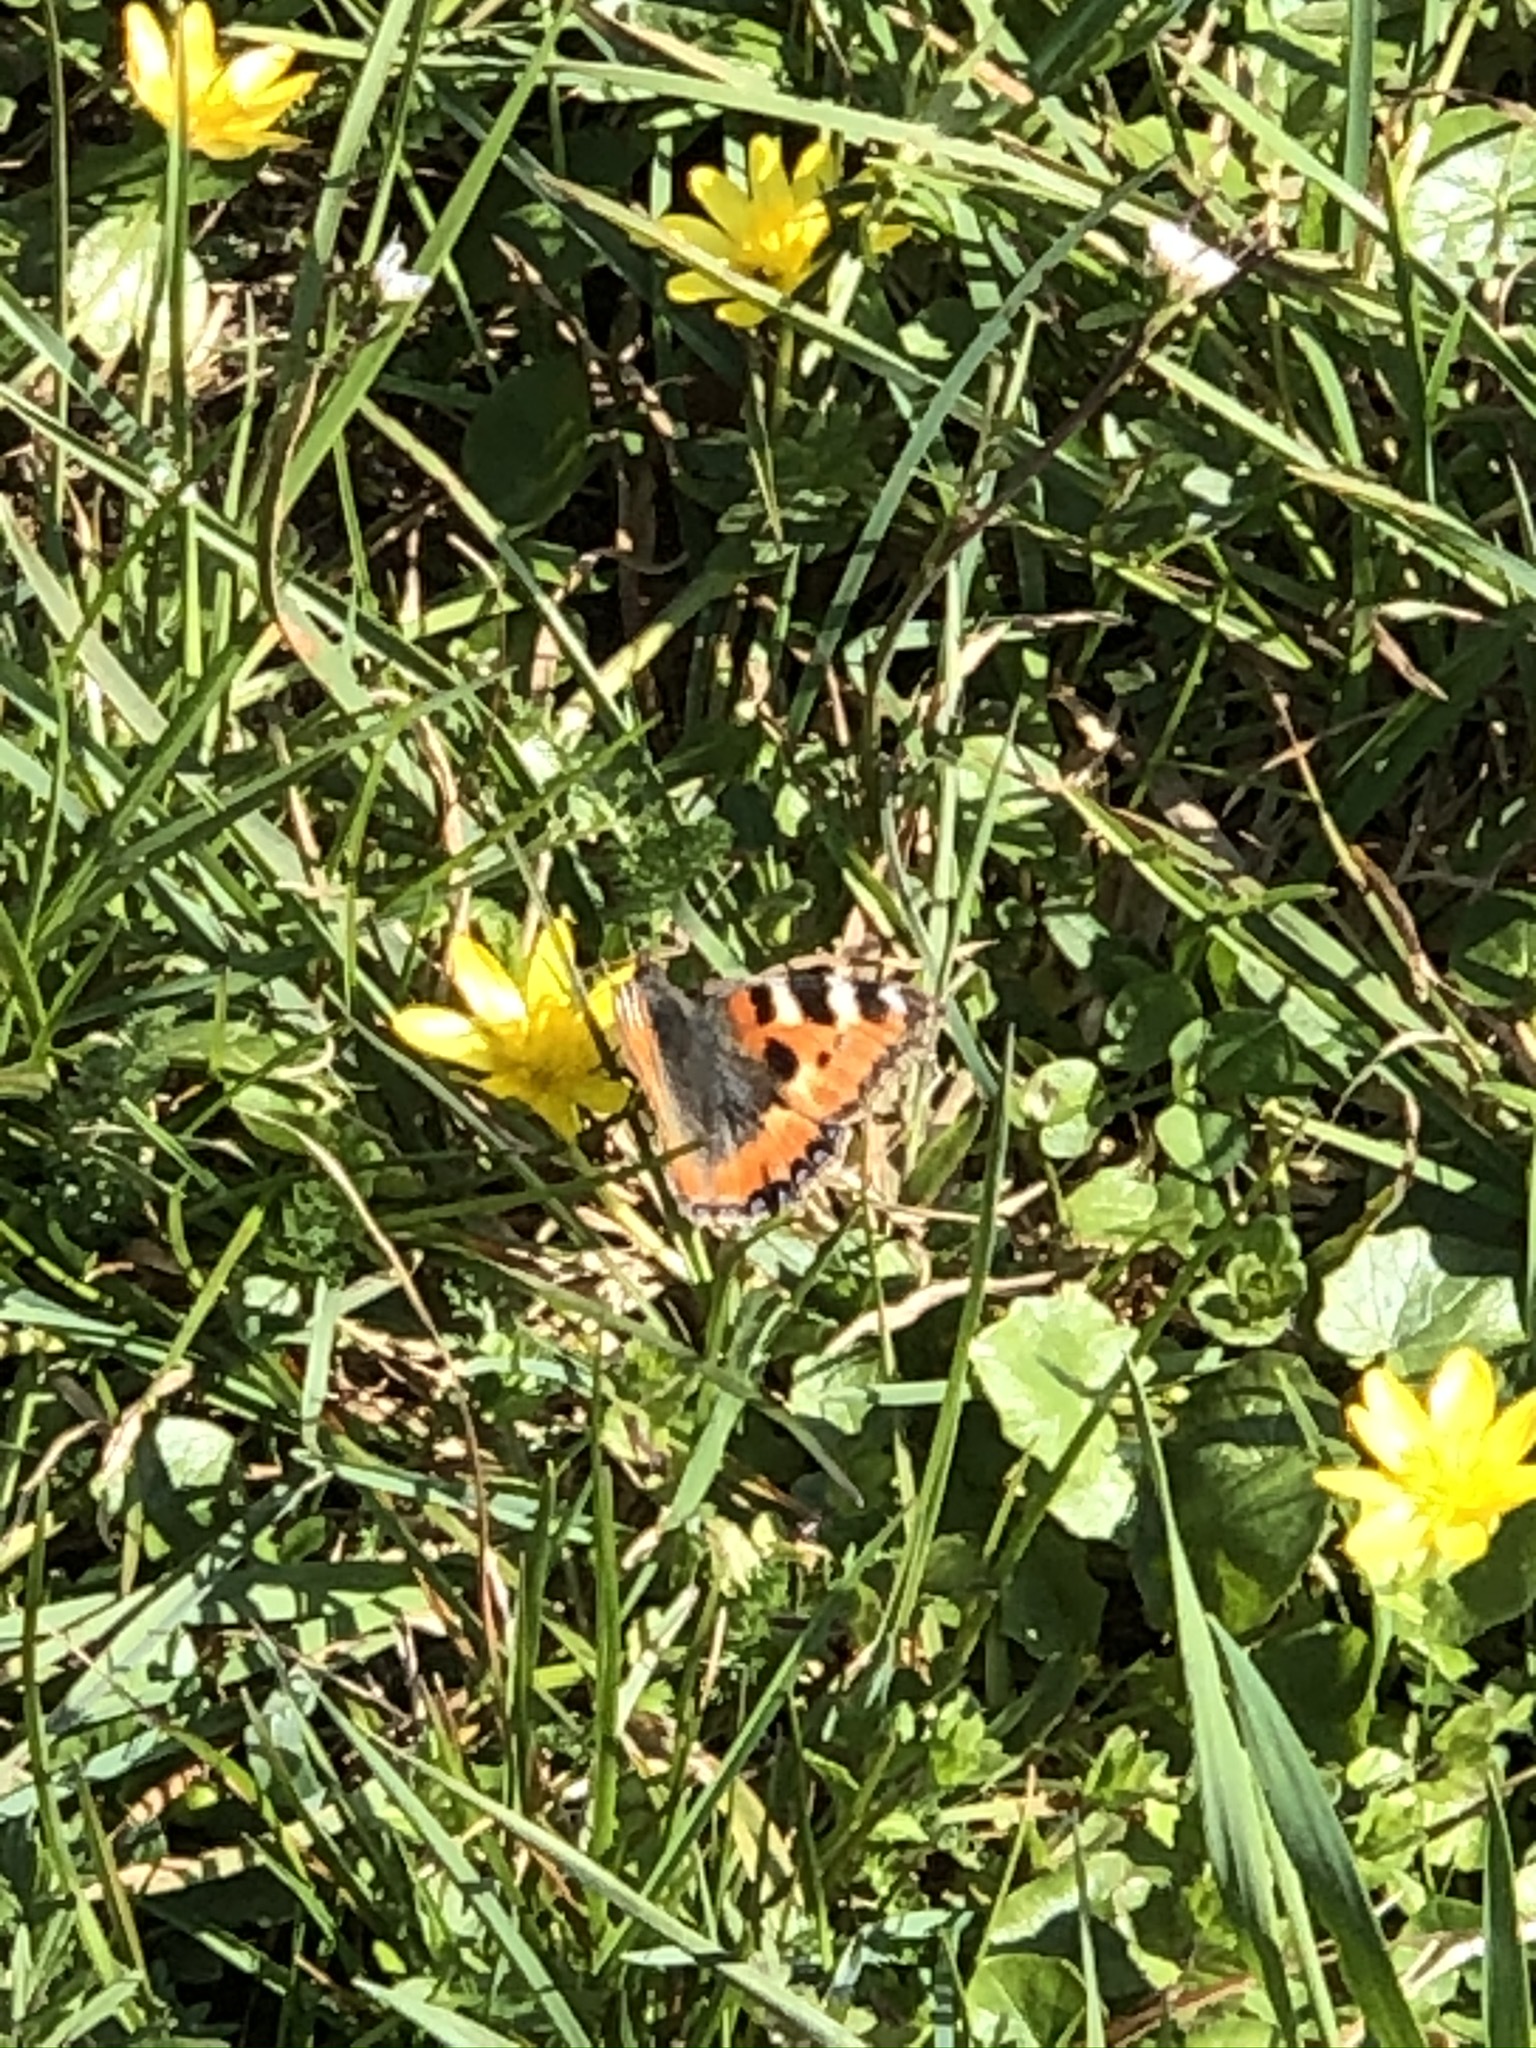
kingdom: Animalia
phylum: Arthropoda
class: Insecta
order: Lepidoptera
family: Nymphalidae
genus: Aglais
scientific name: Aglais urticae
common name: Small tortoiseshell
